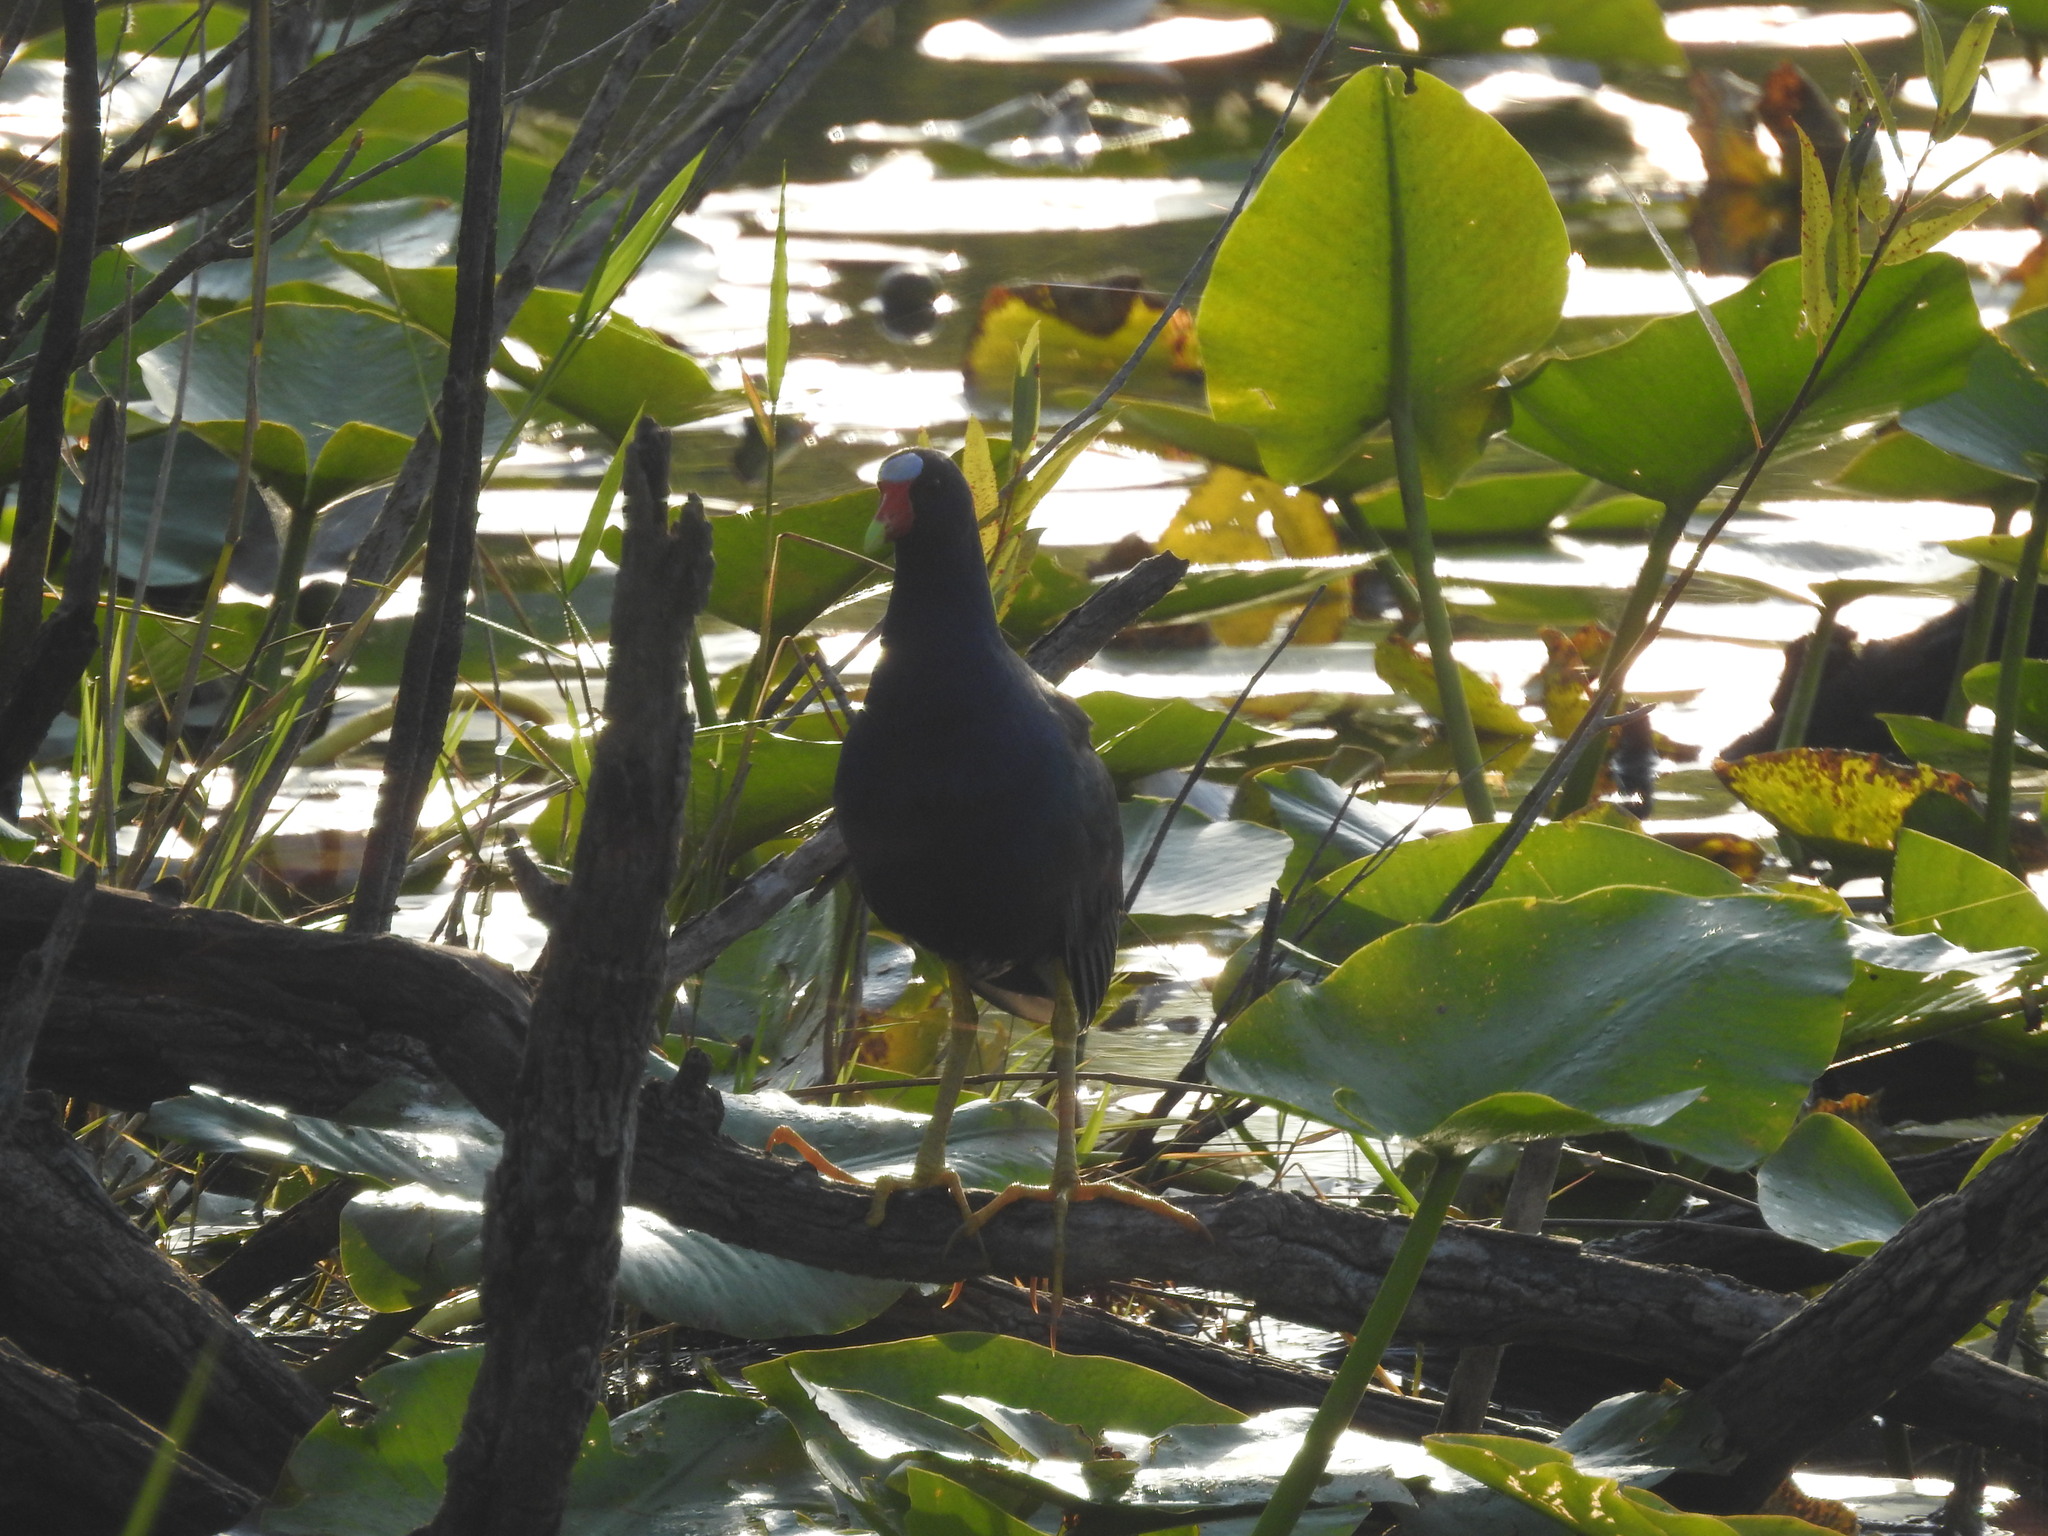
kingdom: Animalia
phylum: Chordata
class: Aves
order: Gruiformes
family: Rallidae
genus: Porphyrio
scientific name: Porphyrio martinica
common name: Purple gallinule
